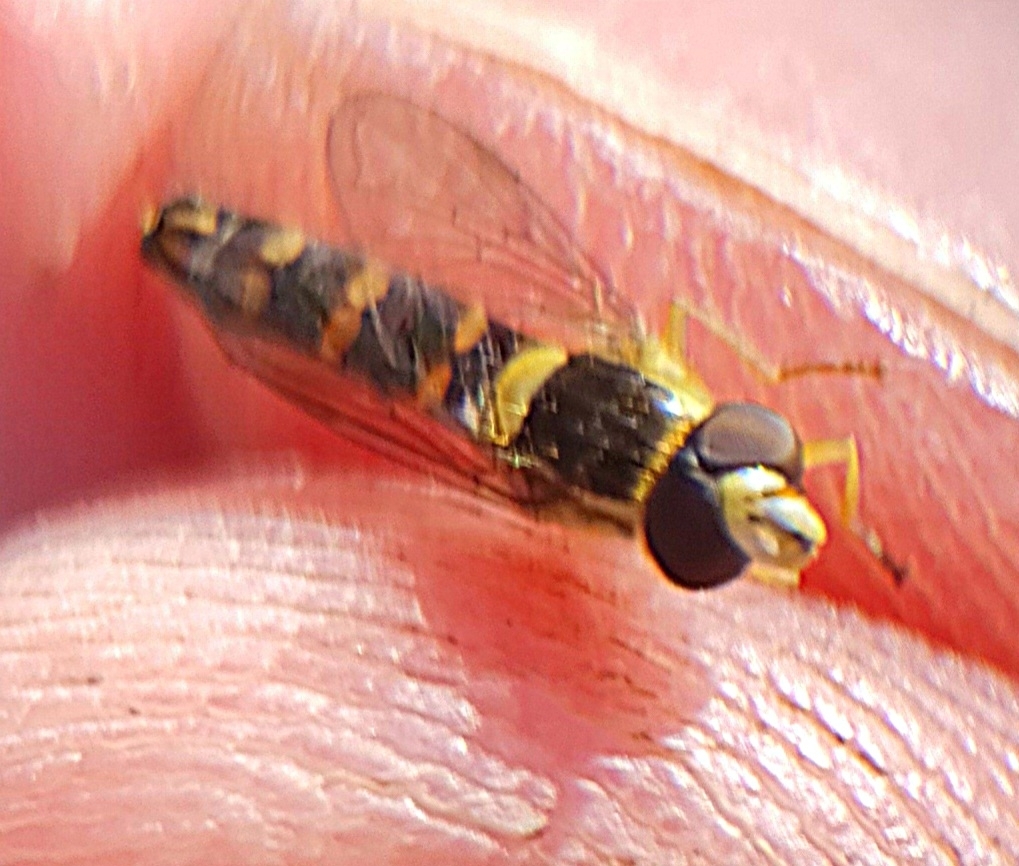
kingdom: Animalia
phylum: Arthropoda
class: Insecta
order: Diptera
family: Syrphidae
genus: Sphaerophoria
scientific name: Sphaerophoria scripta
